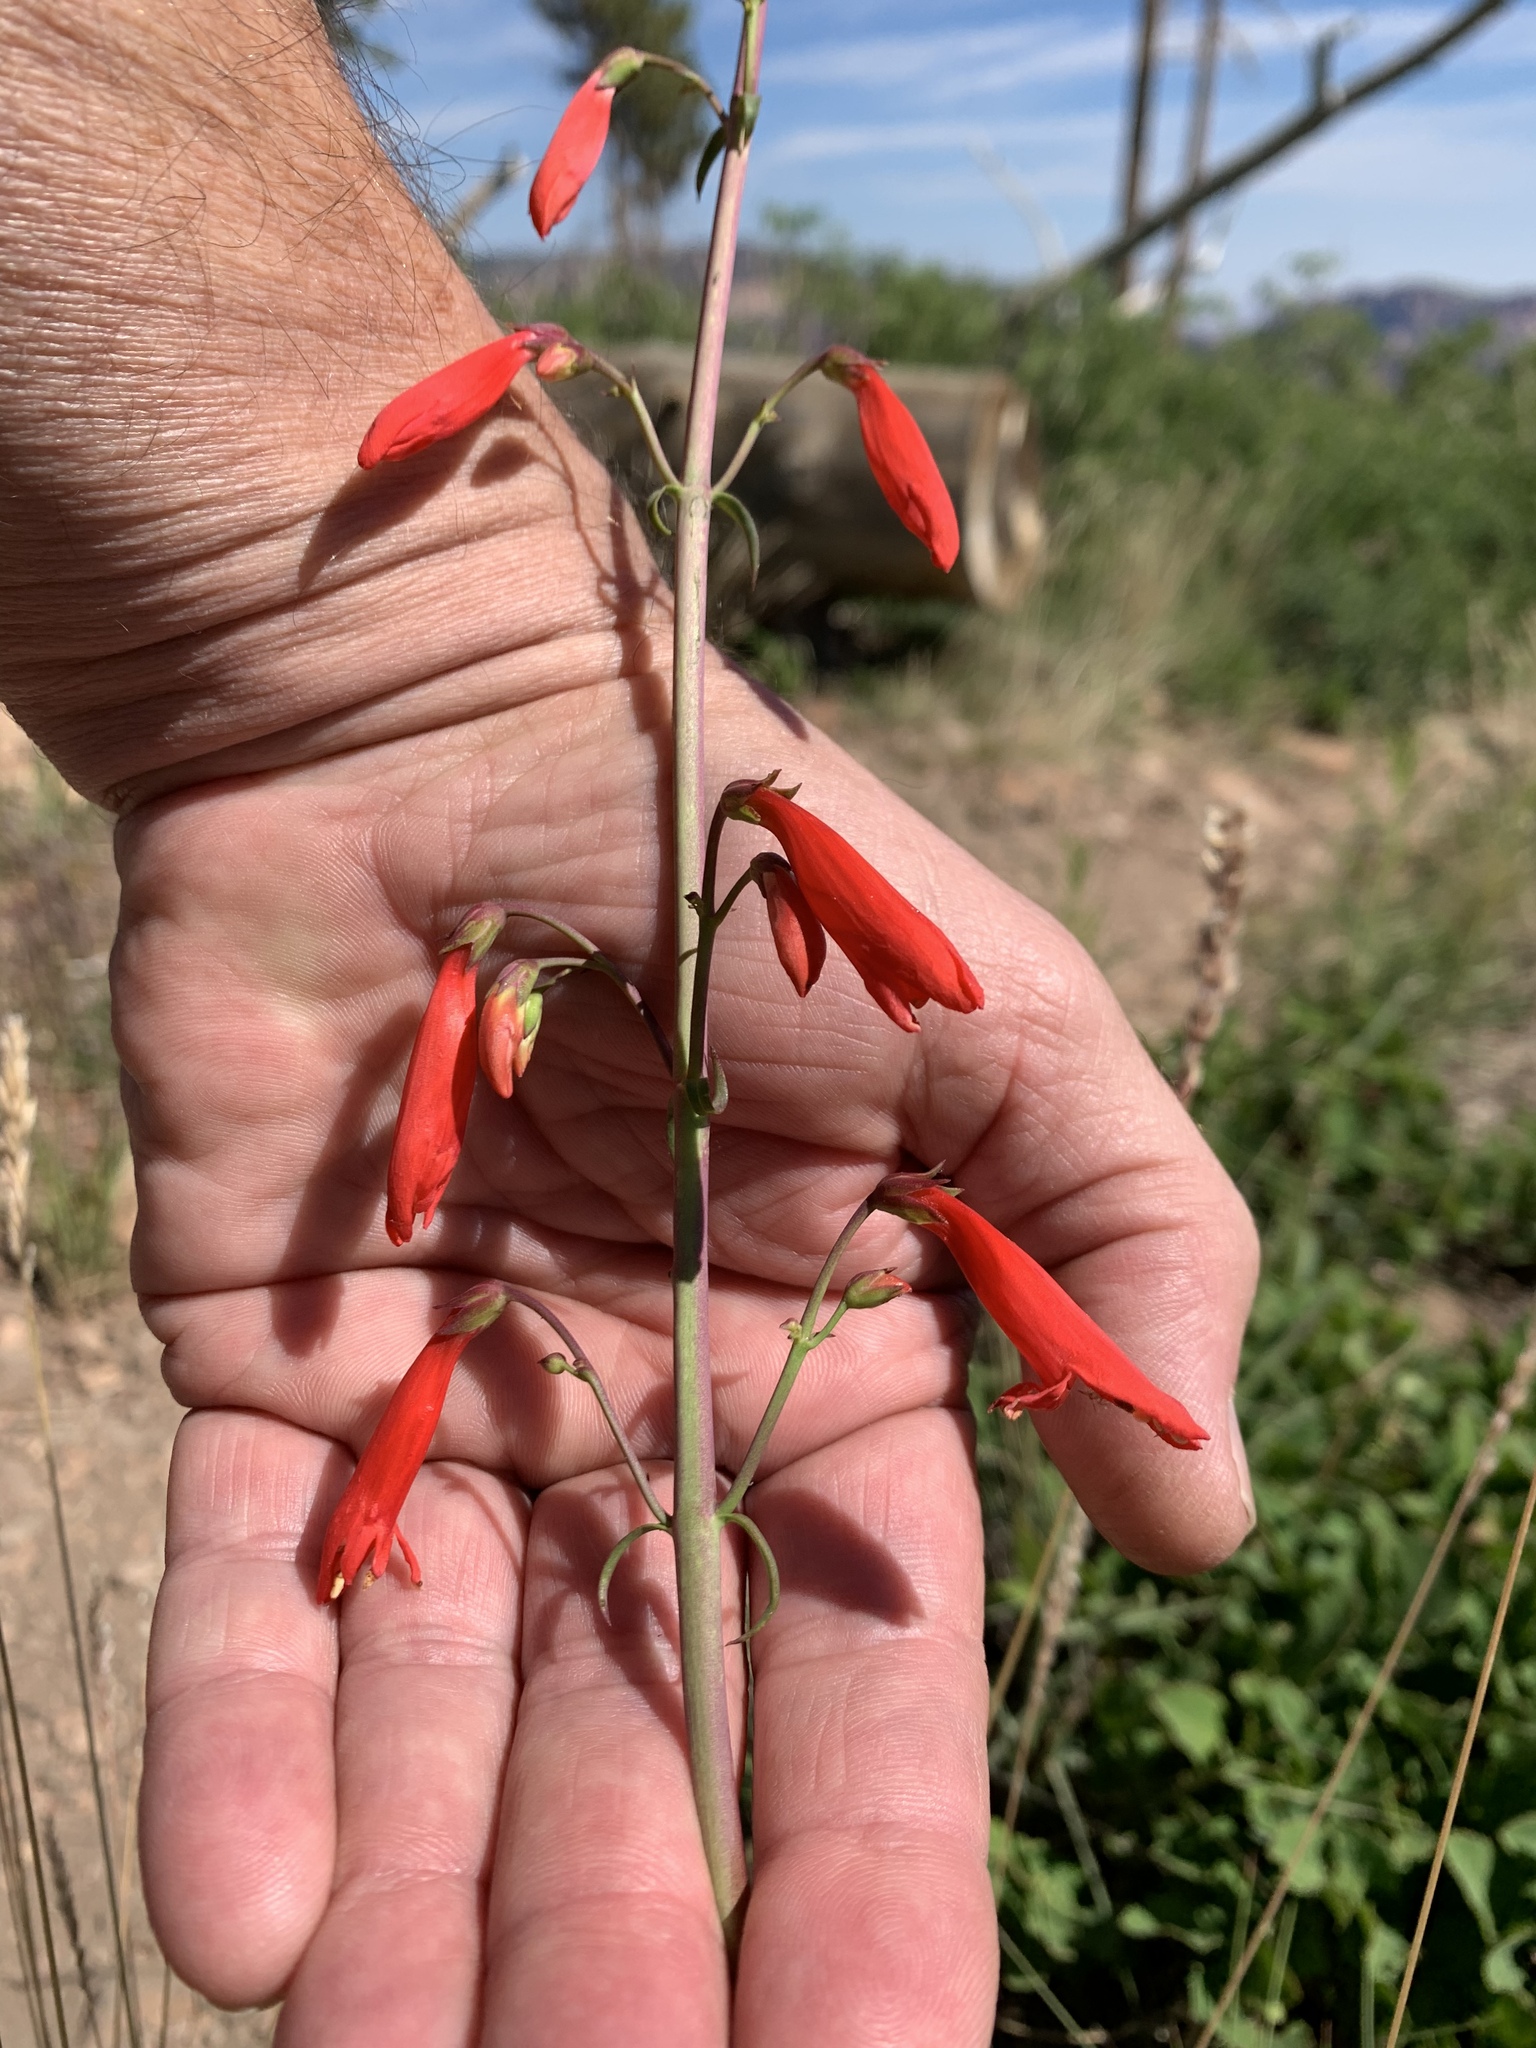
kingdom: Plantae
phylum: Tracheophyta
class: Magnoliopsida
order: Lamiales
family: Plantaginaceae
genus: Penstemon
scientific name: Penstemon barbatus
